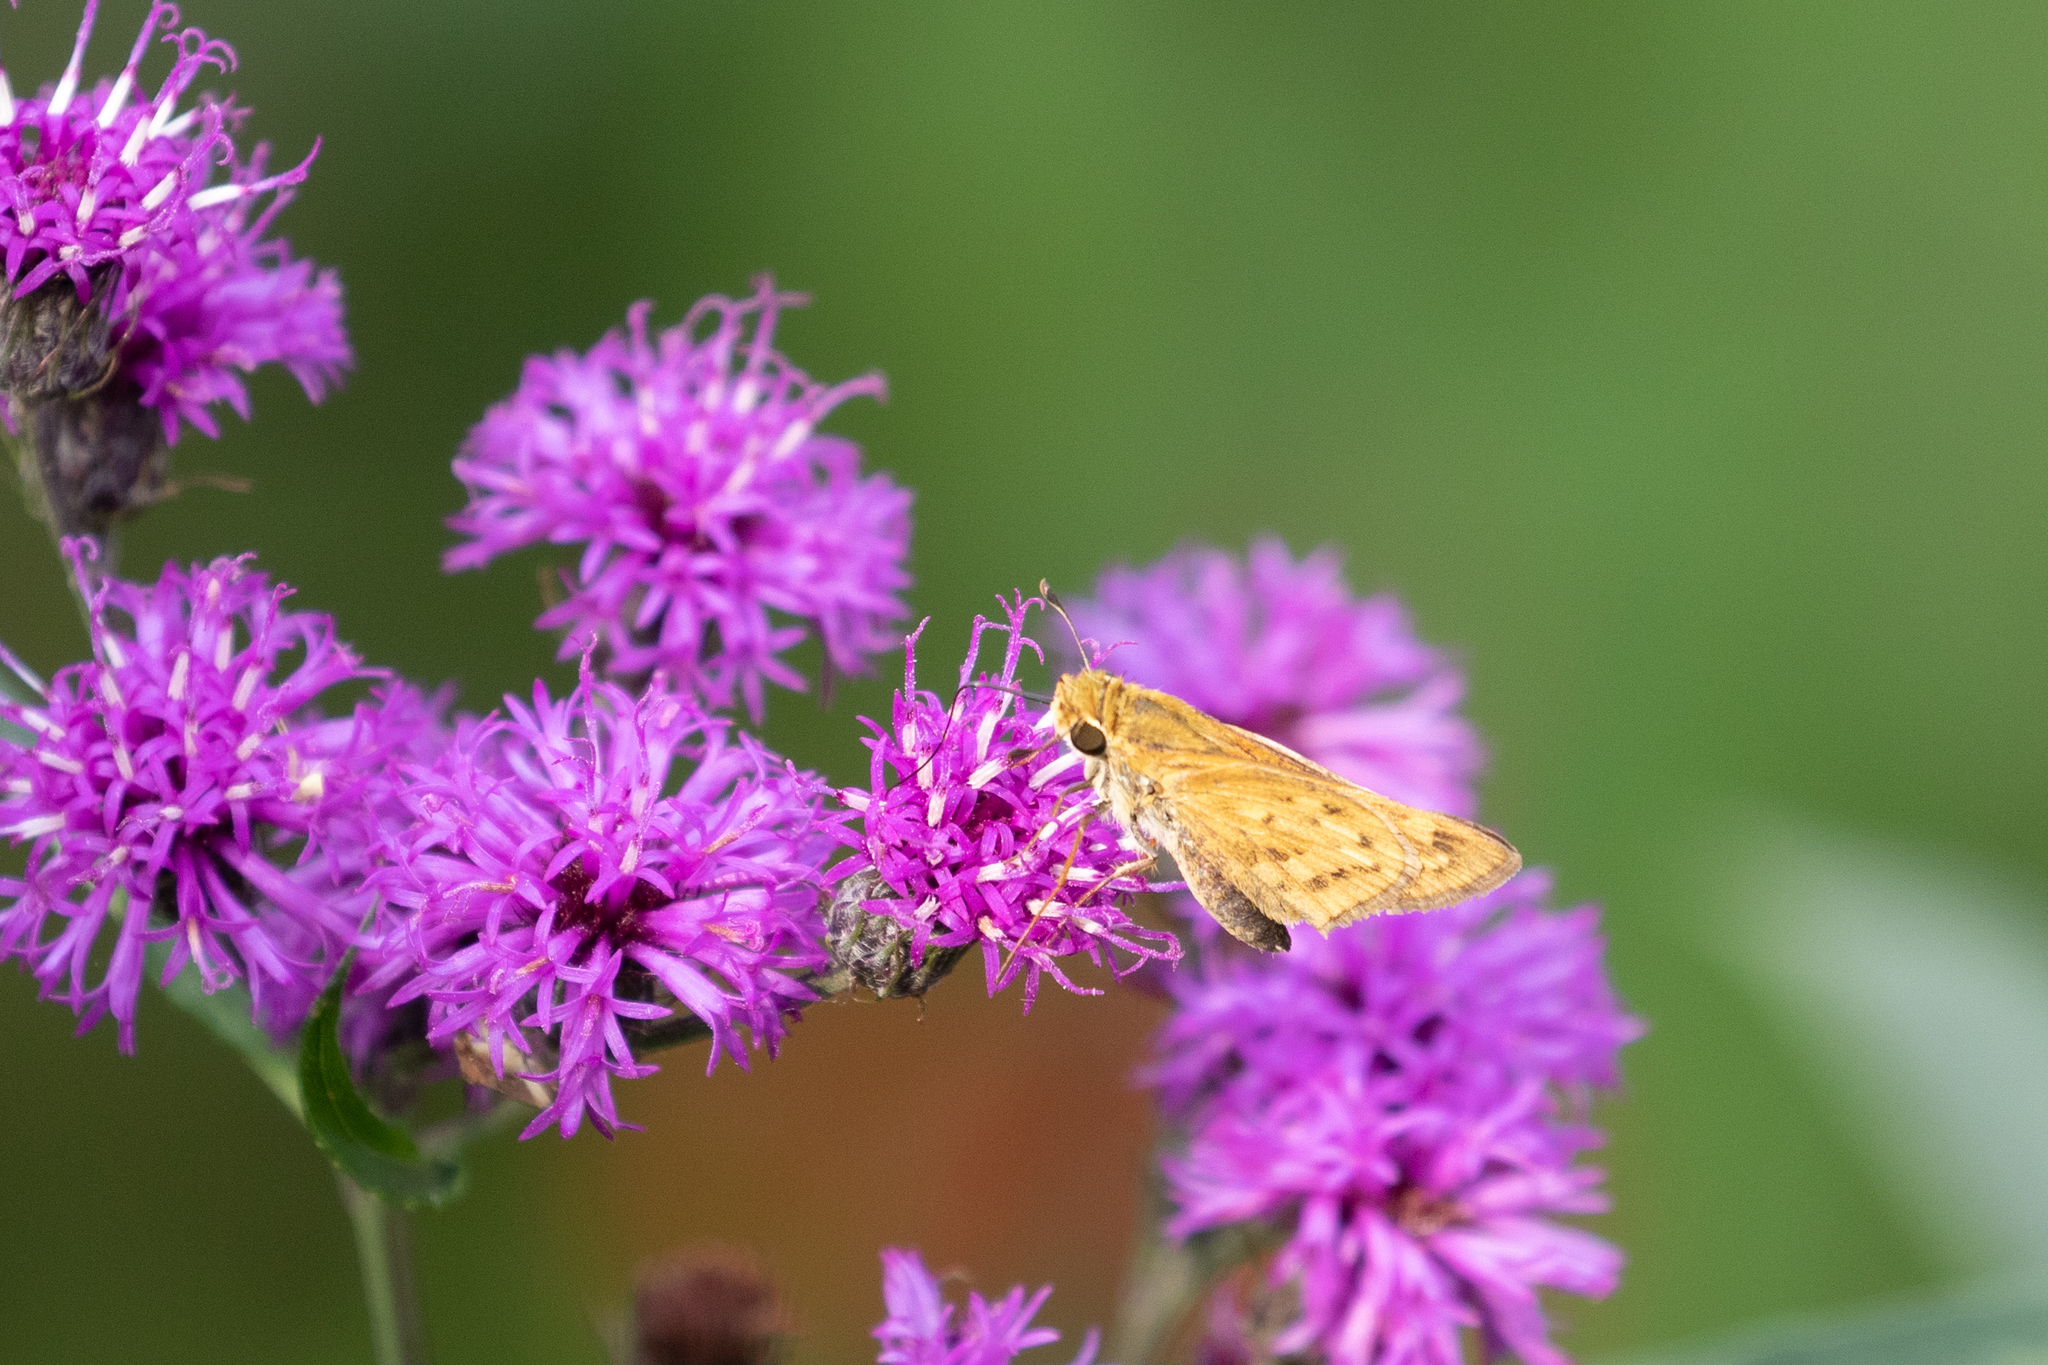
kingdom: Animalia
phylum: Arthropoda
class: Insecta
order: Lepidoptera
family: Hesperiidae
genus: Hylephila
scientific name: Hylephila phyleus
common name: Fiery skipper
